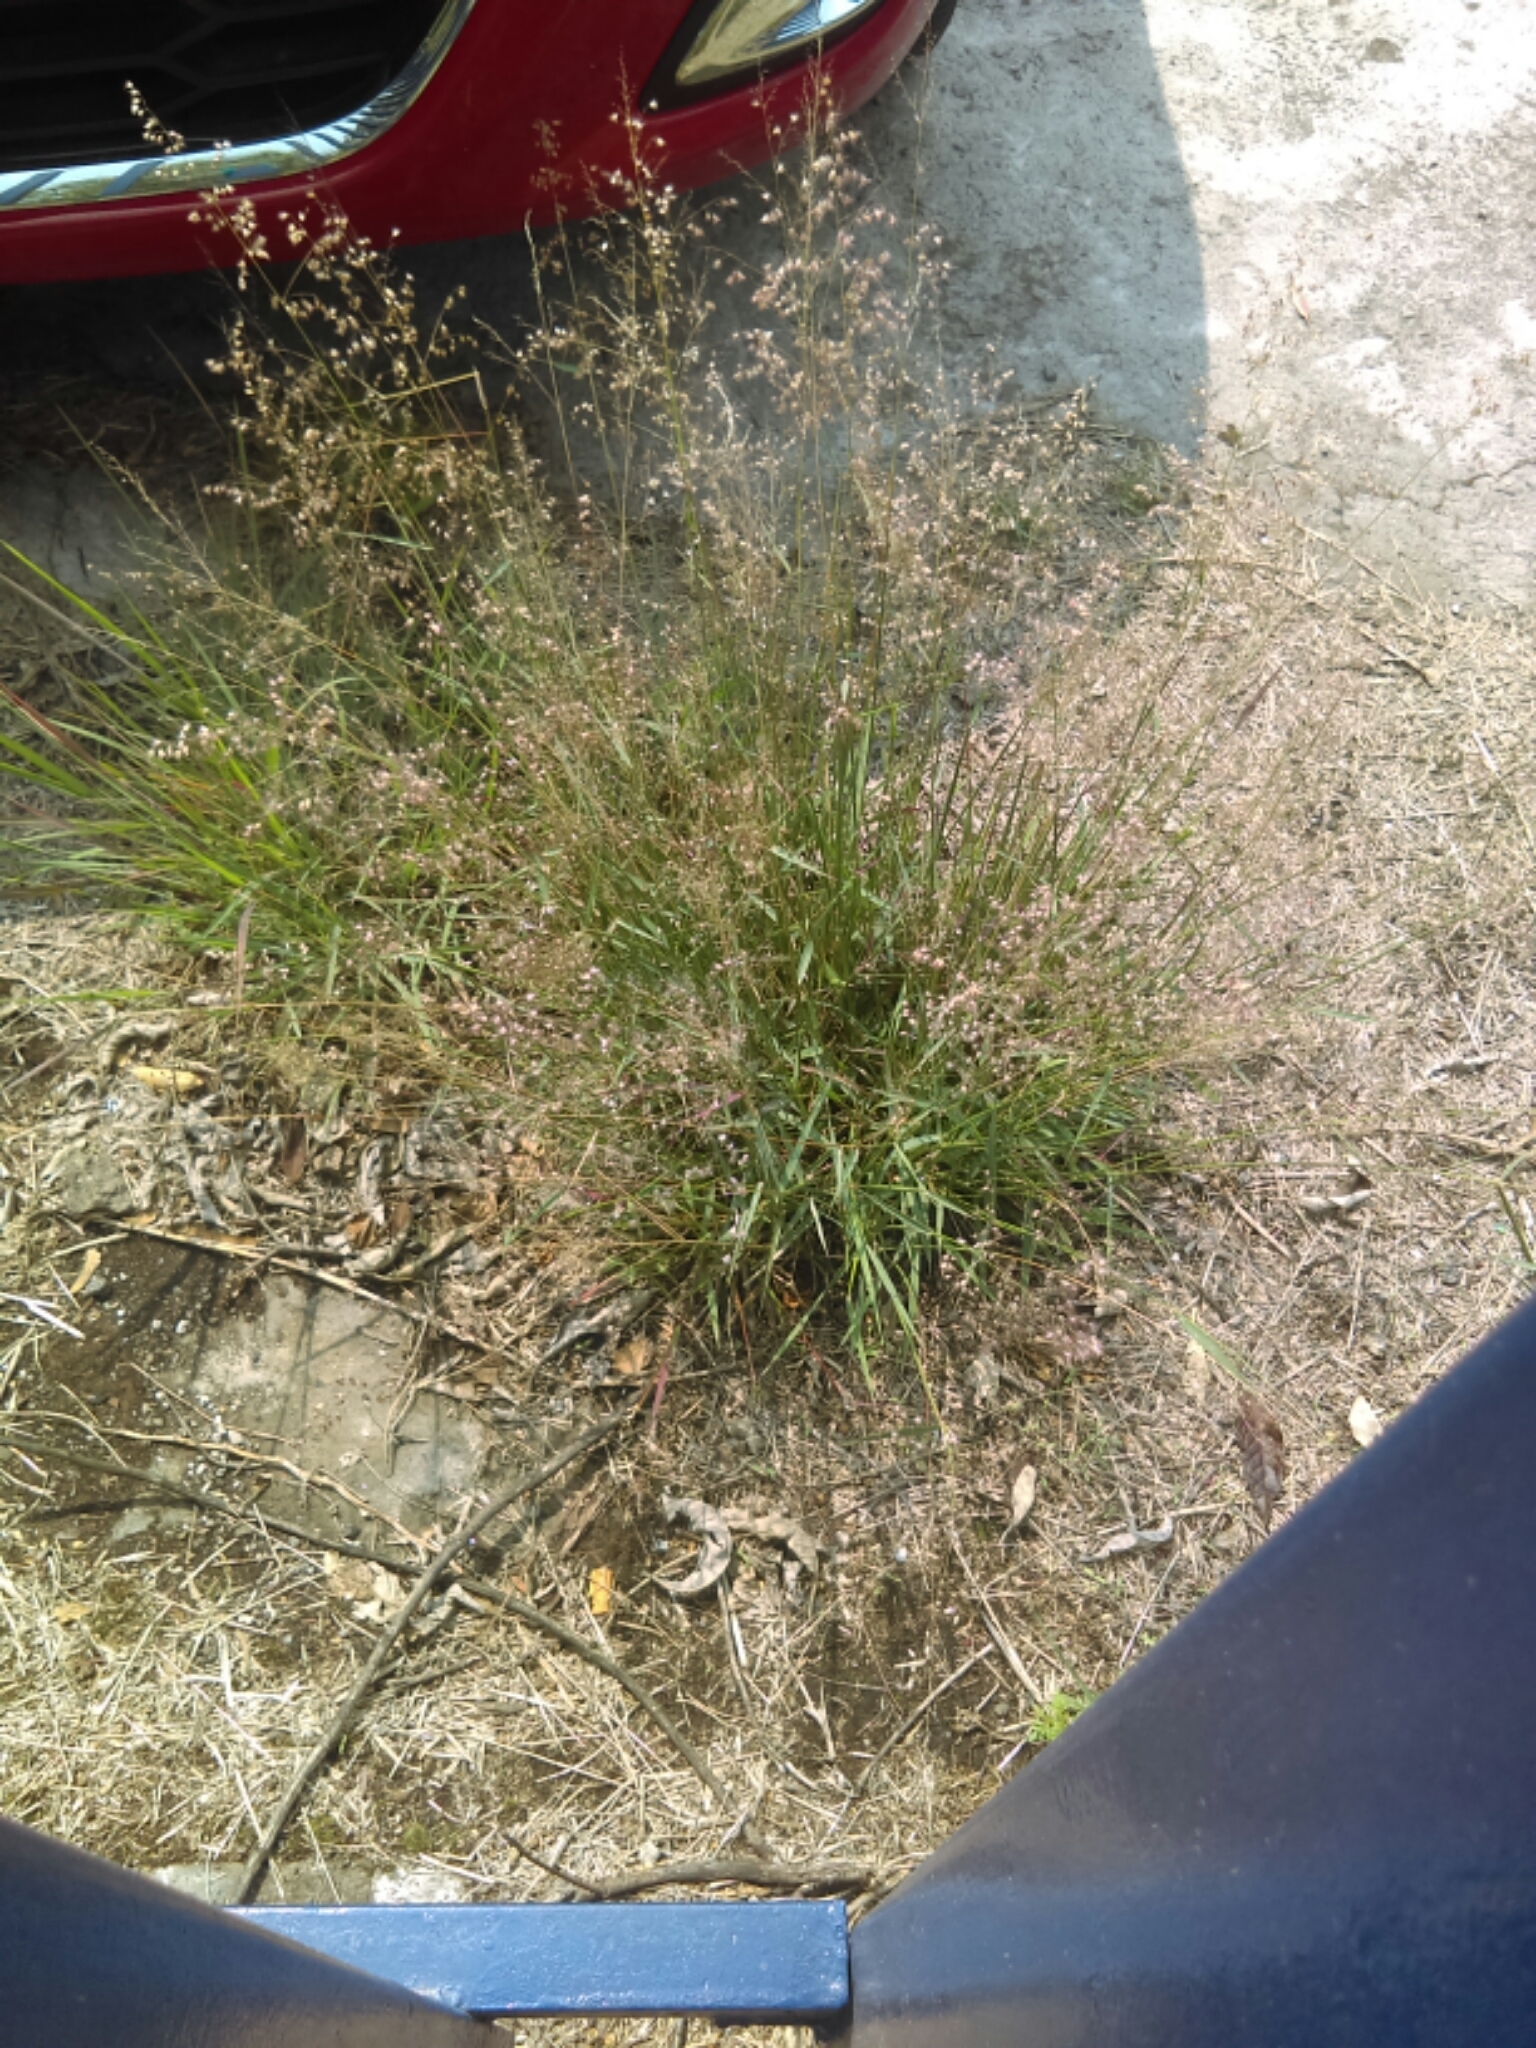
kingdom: Plantae
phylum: Tracheophyta
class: Liliopsida
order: Poales
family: Poaceae
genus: Melinis
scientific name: Melinis repens
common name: Rose natal grass
